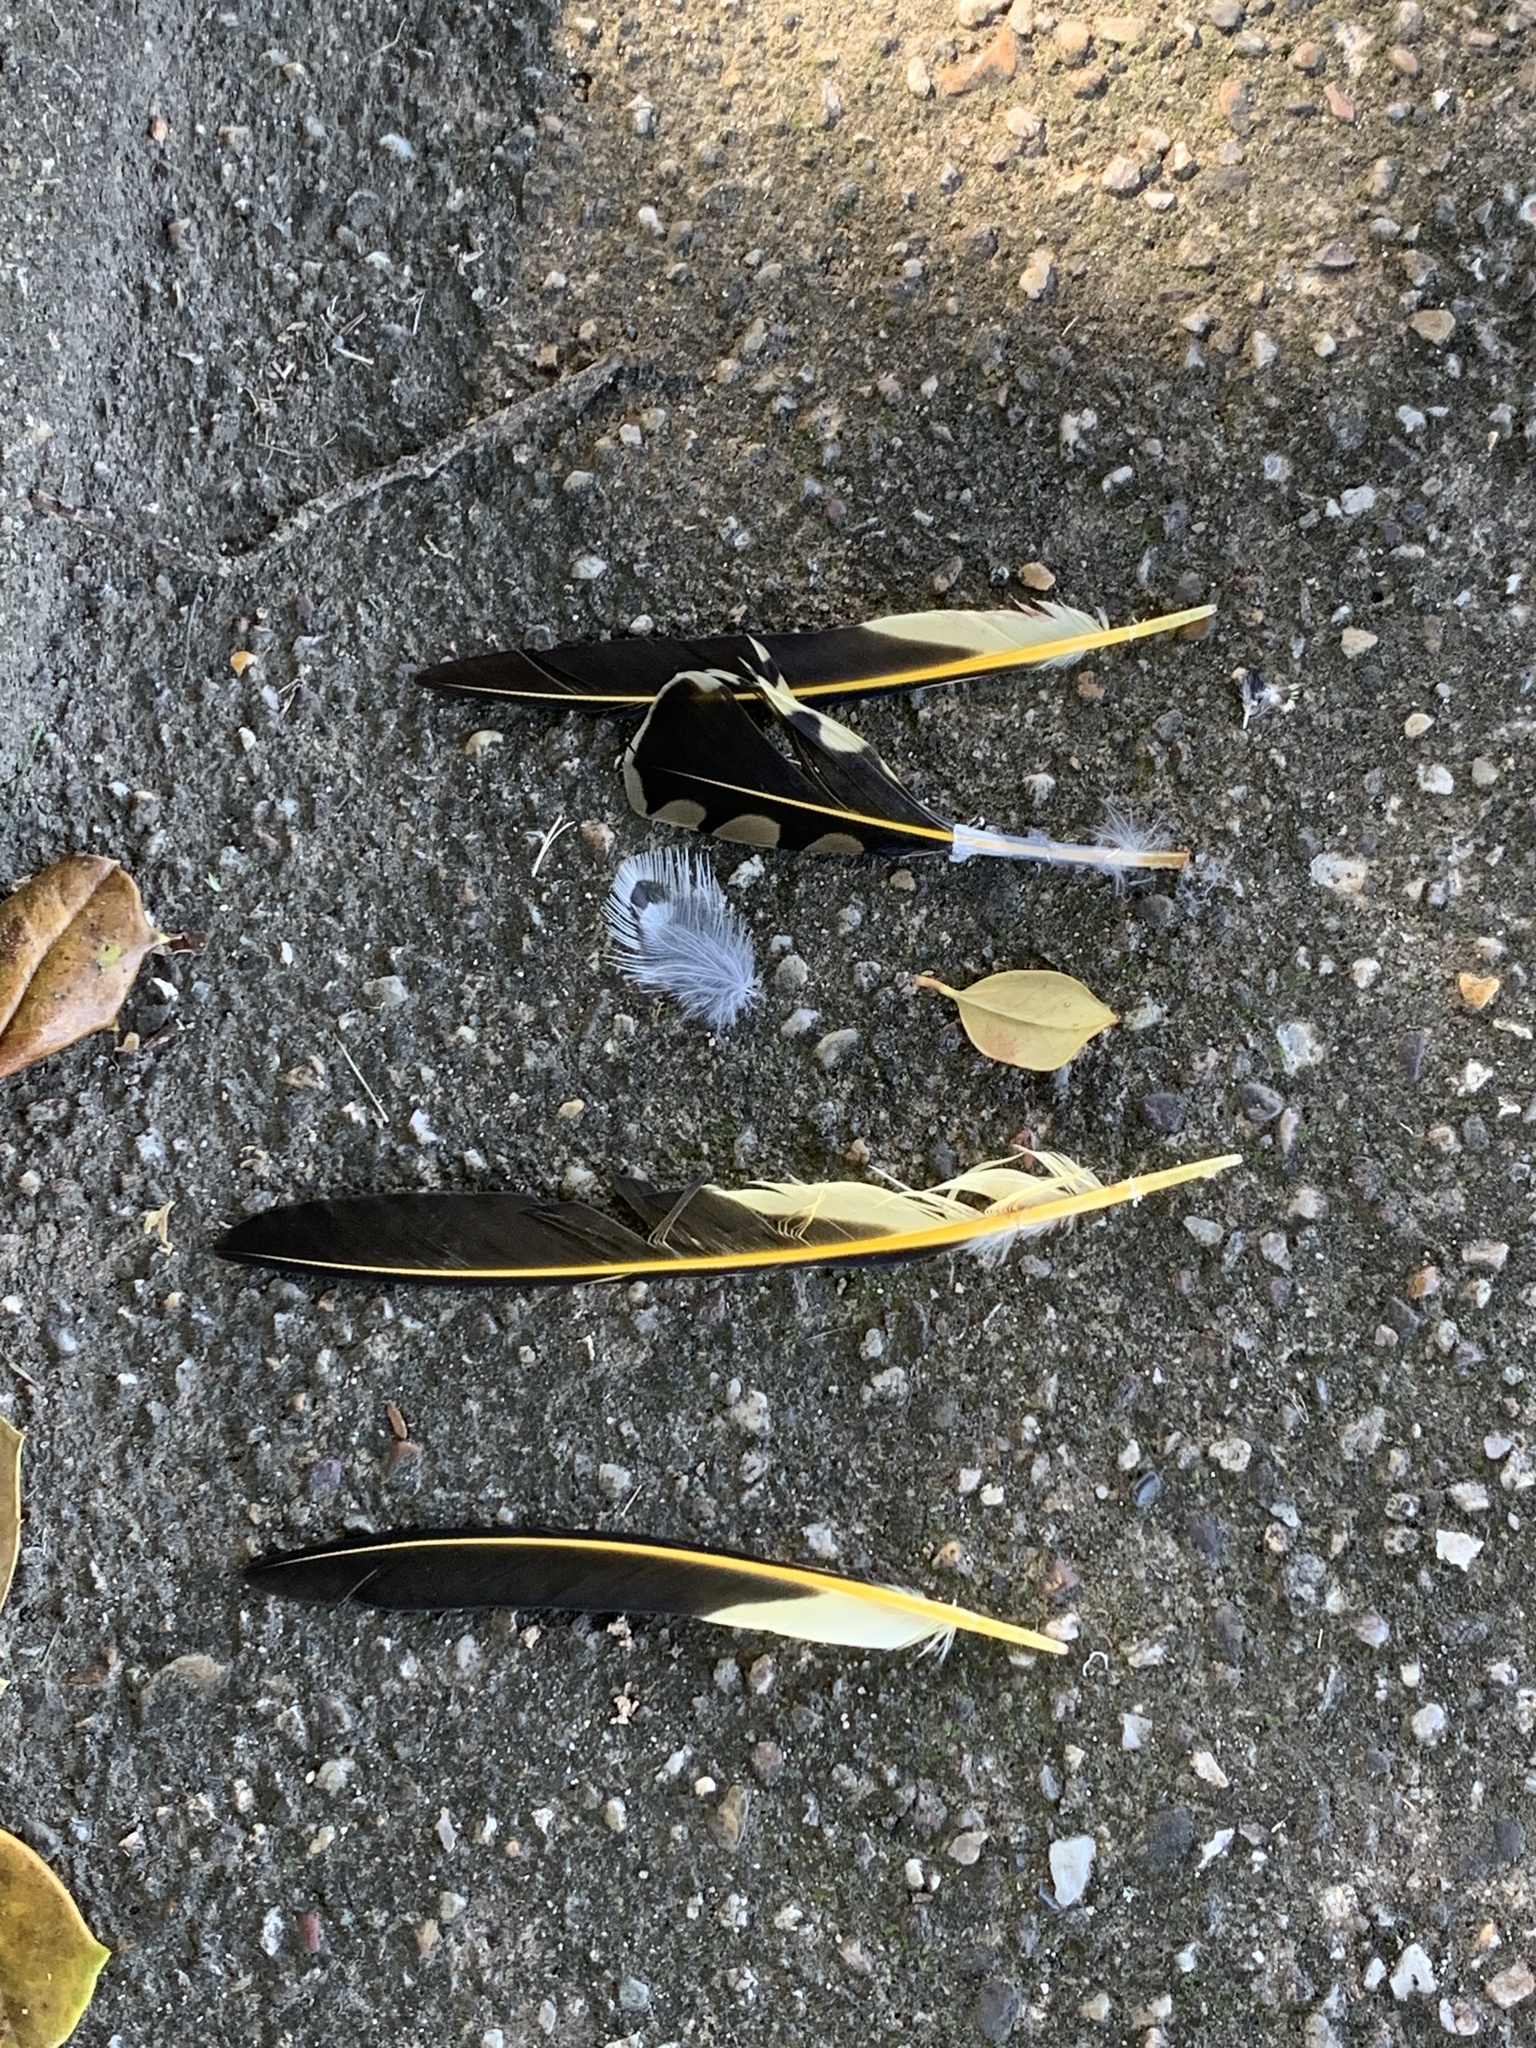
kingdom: Animalia
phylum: Chordata
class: Aves
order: Piciformes
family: Picidae
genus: Colaptes
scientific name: Colaptes auratus
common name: Northern flicker
